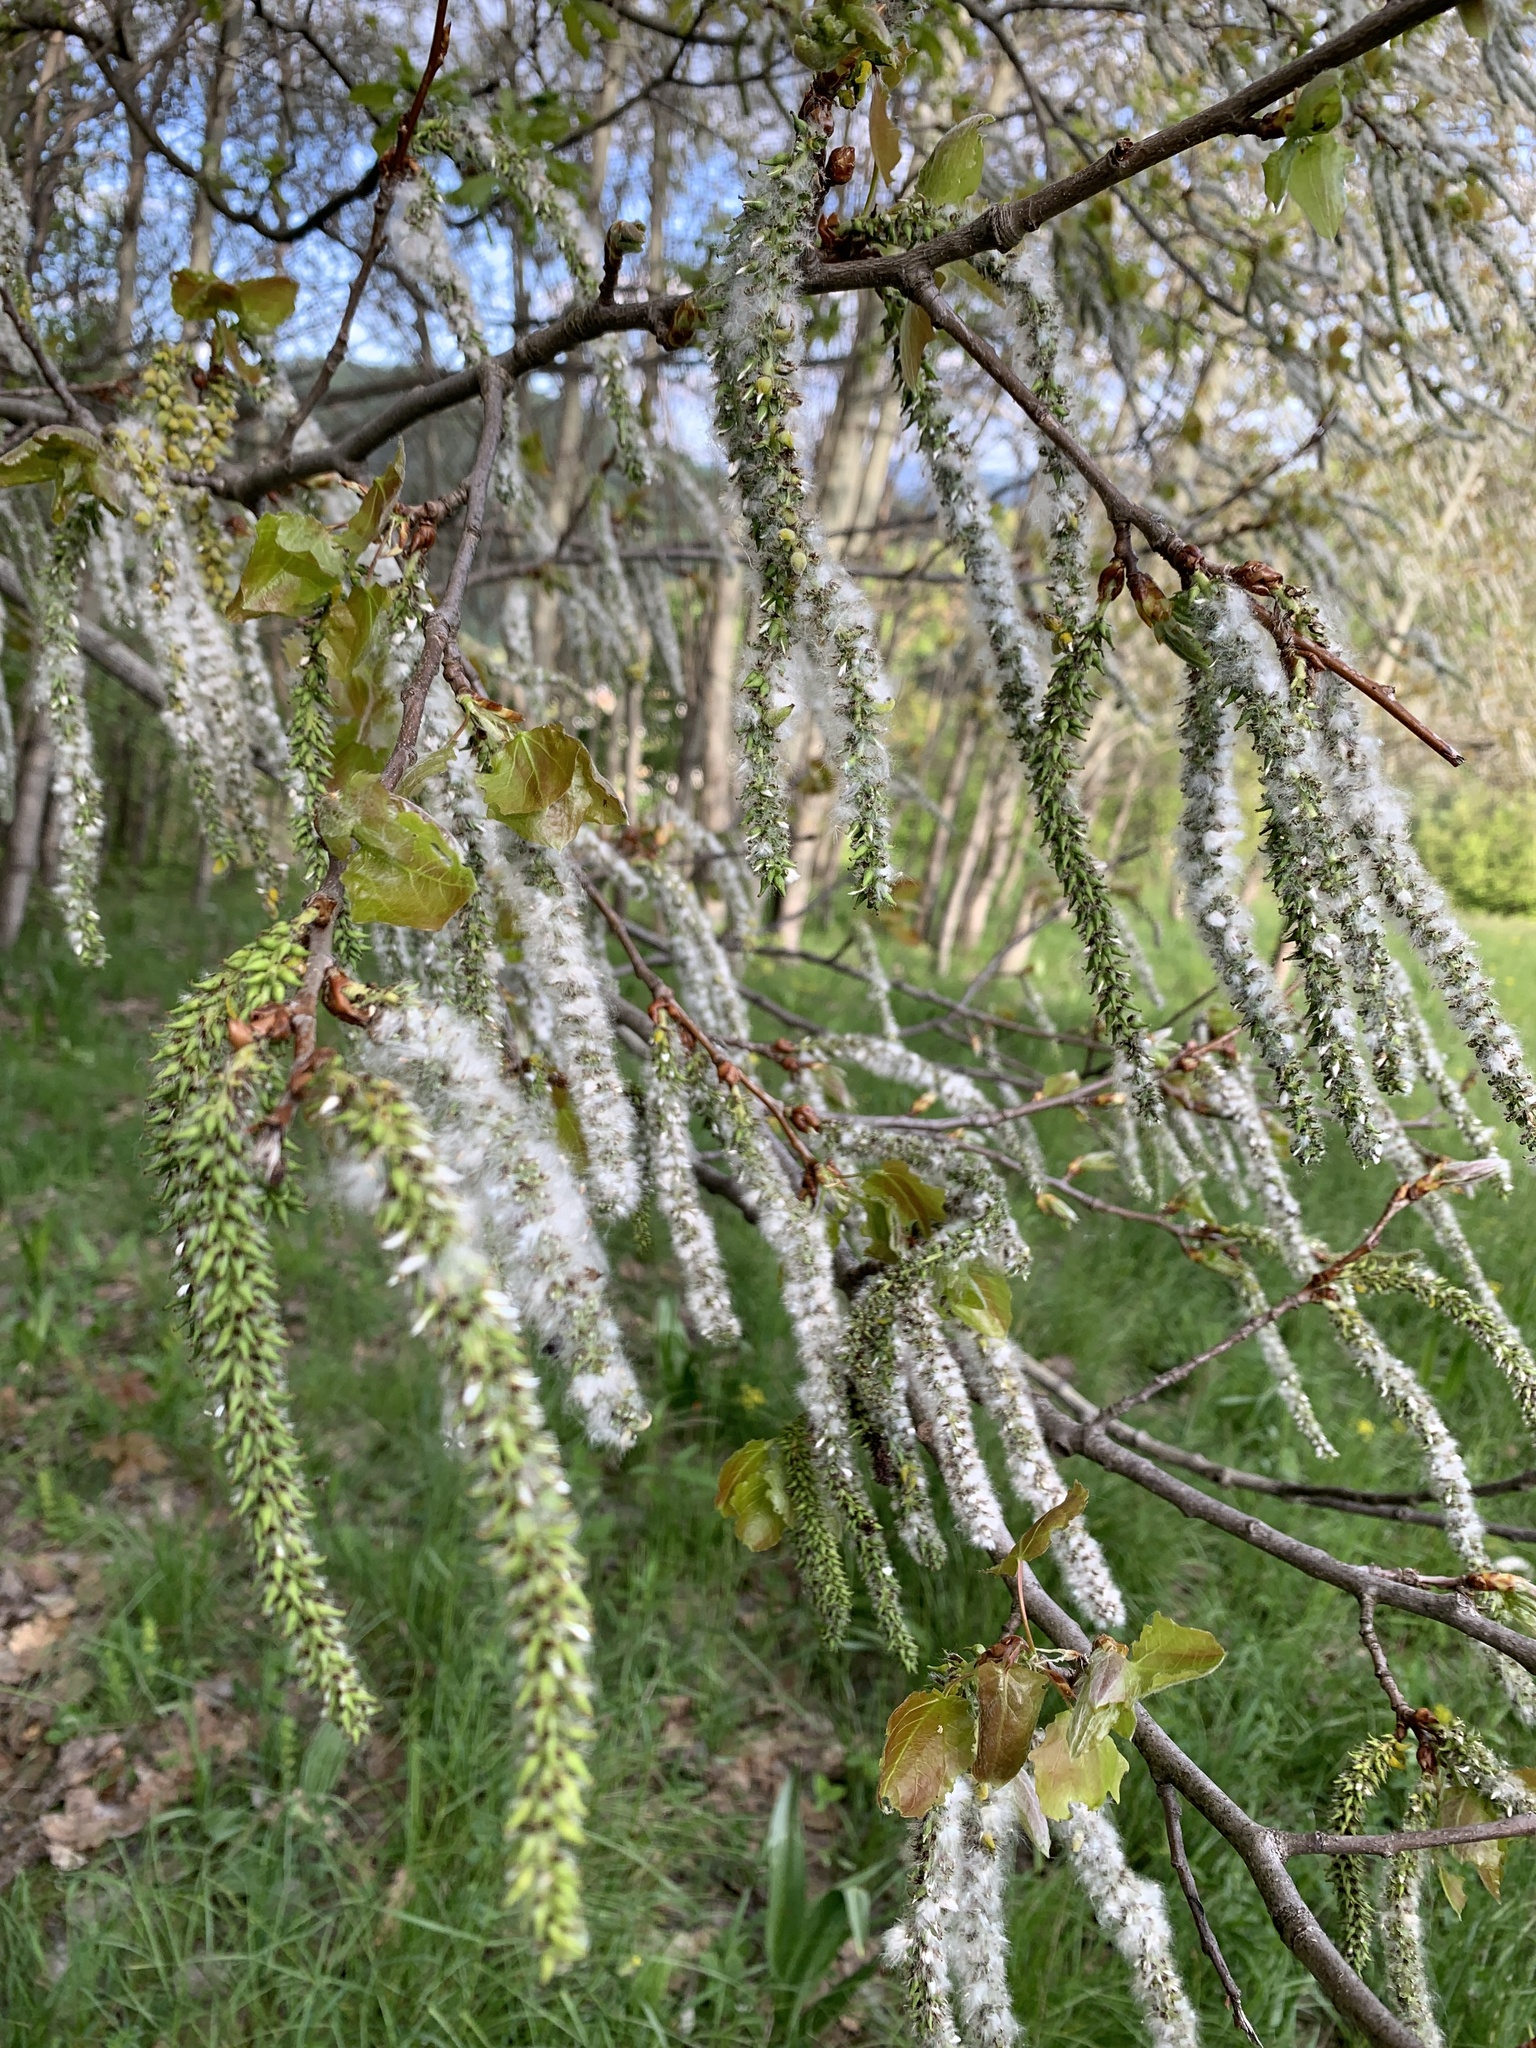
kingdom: Plantae
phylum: Tracheophyta
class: Magnoliopsida
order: Malpighiales
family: Salicaceae
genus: Populus
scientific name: Populus tremula
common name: European aspen
